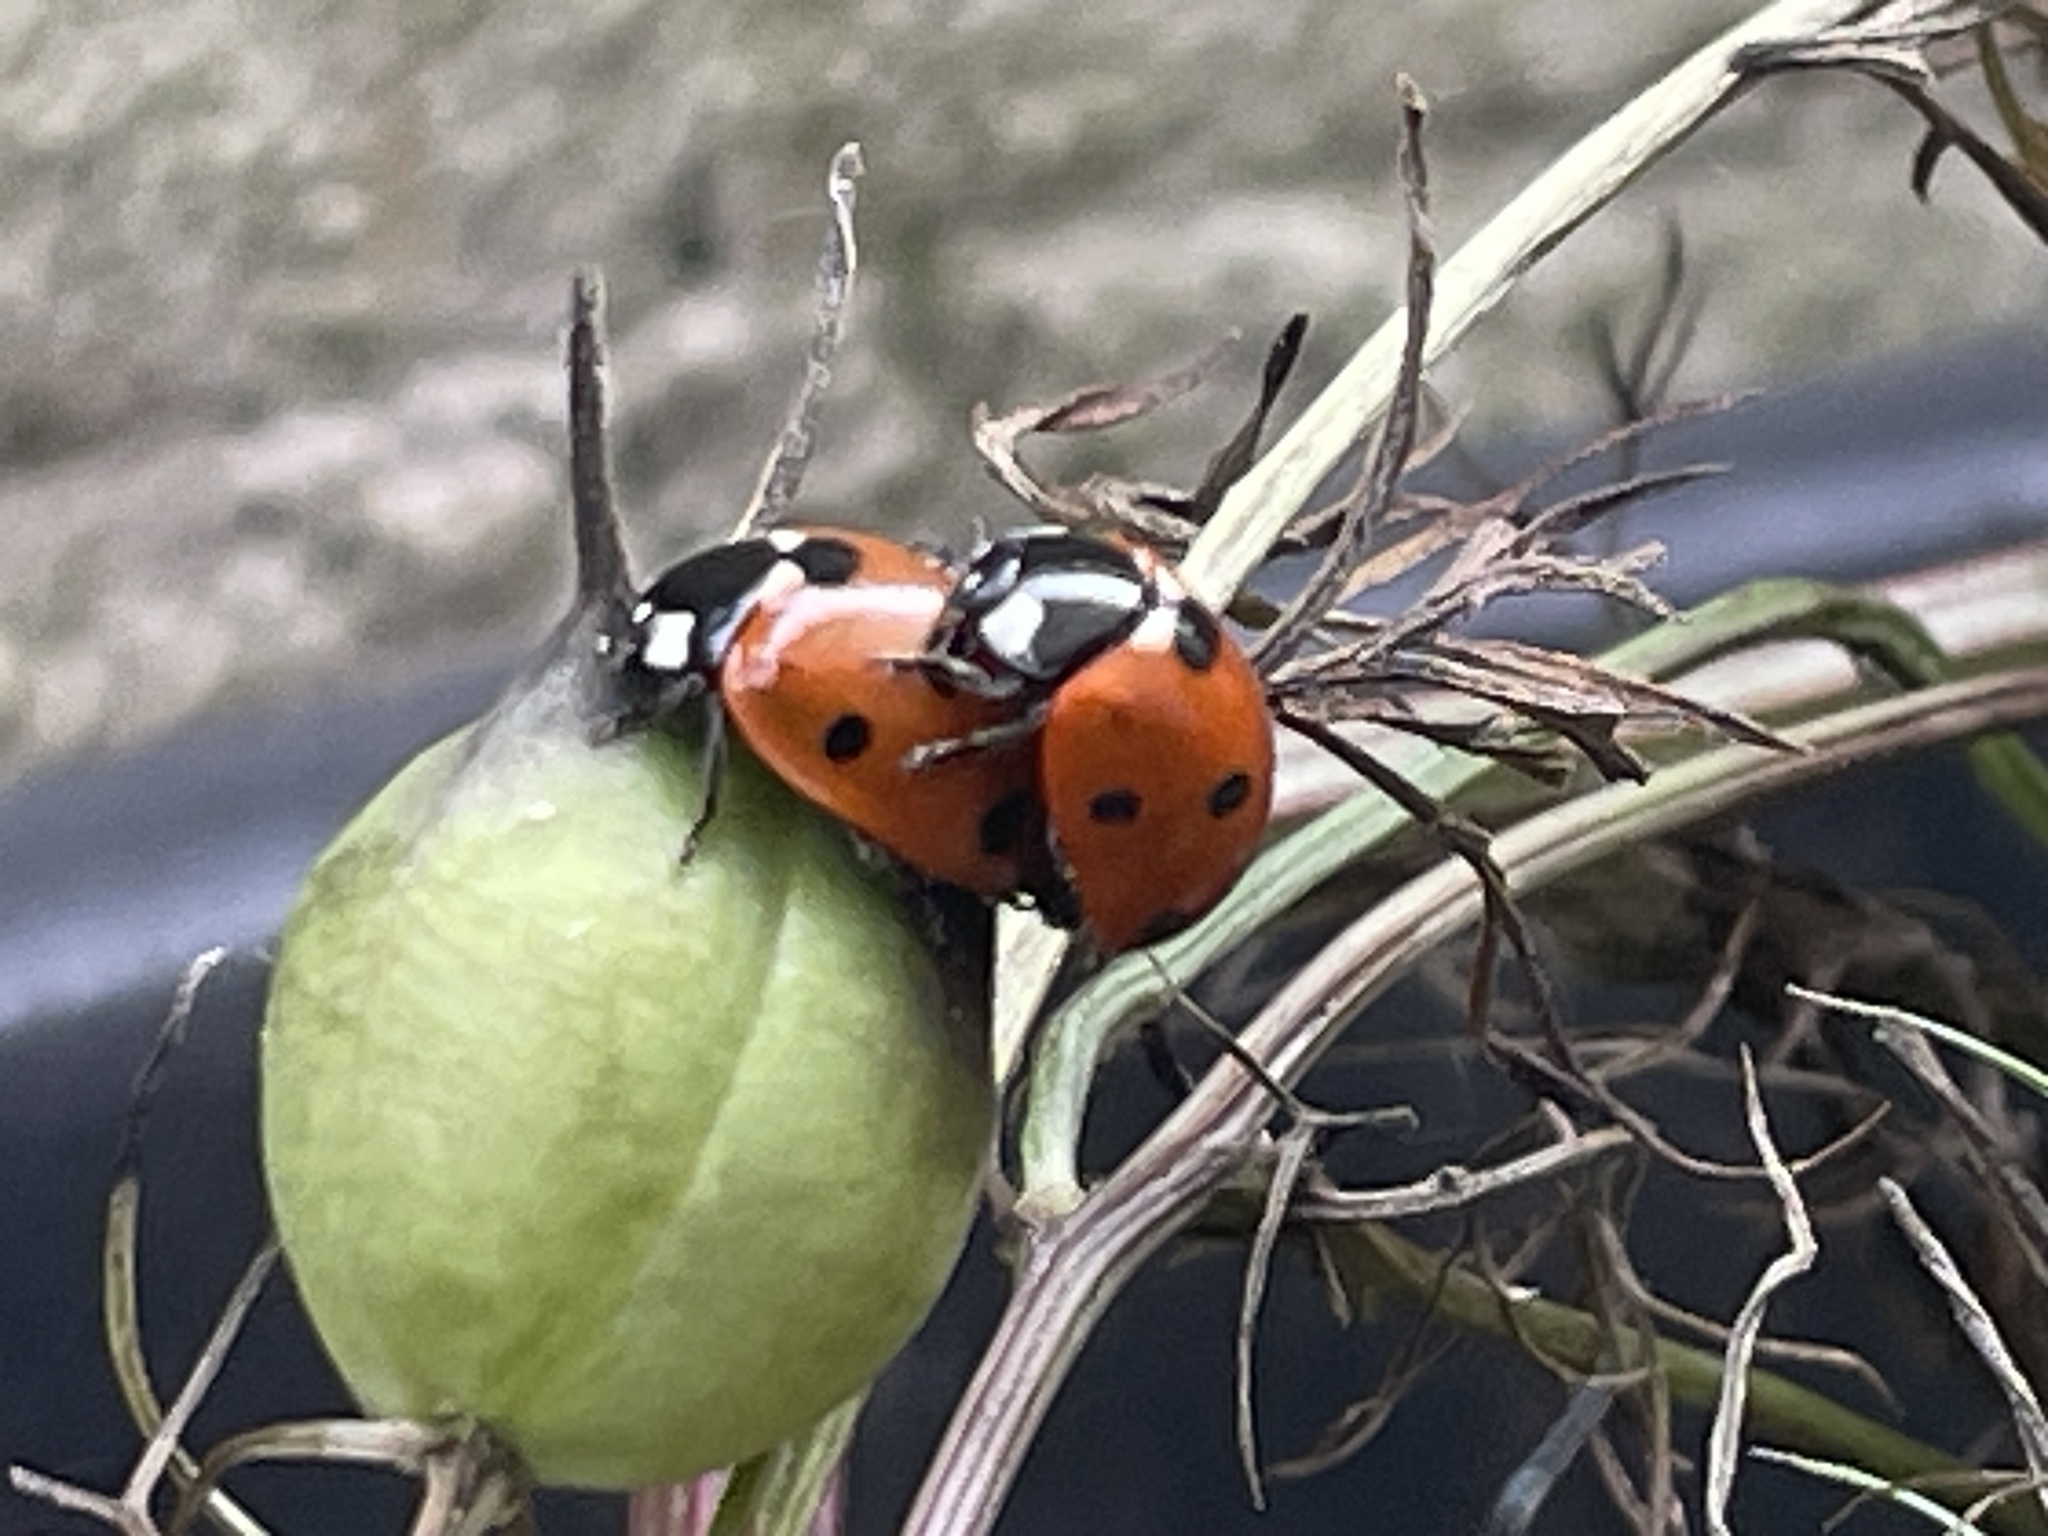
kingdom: Animalia
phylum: Arthropoda
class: Insecta
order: Coleoptera
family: Coccinellidae
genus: Coccinella
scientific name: Coccinella septempunctata
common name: Sevenspotted lady beetle
